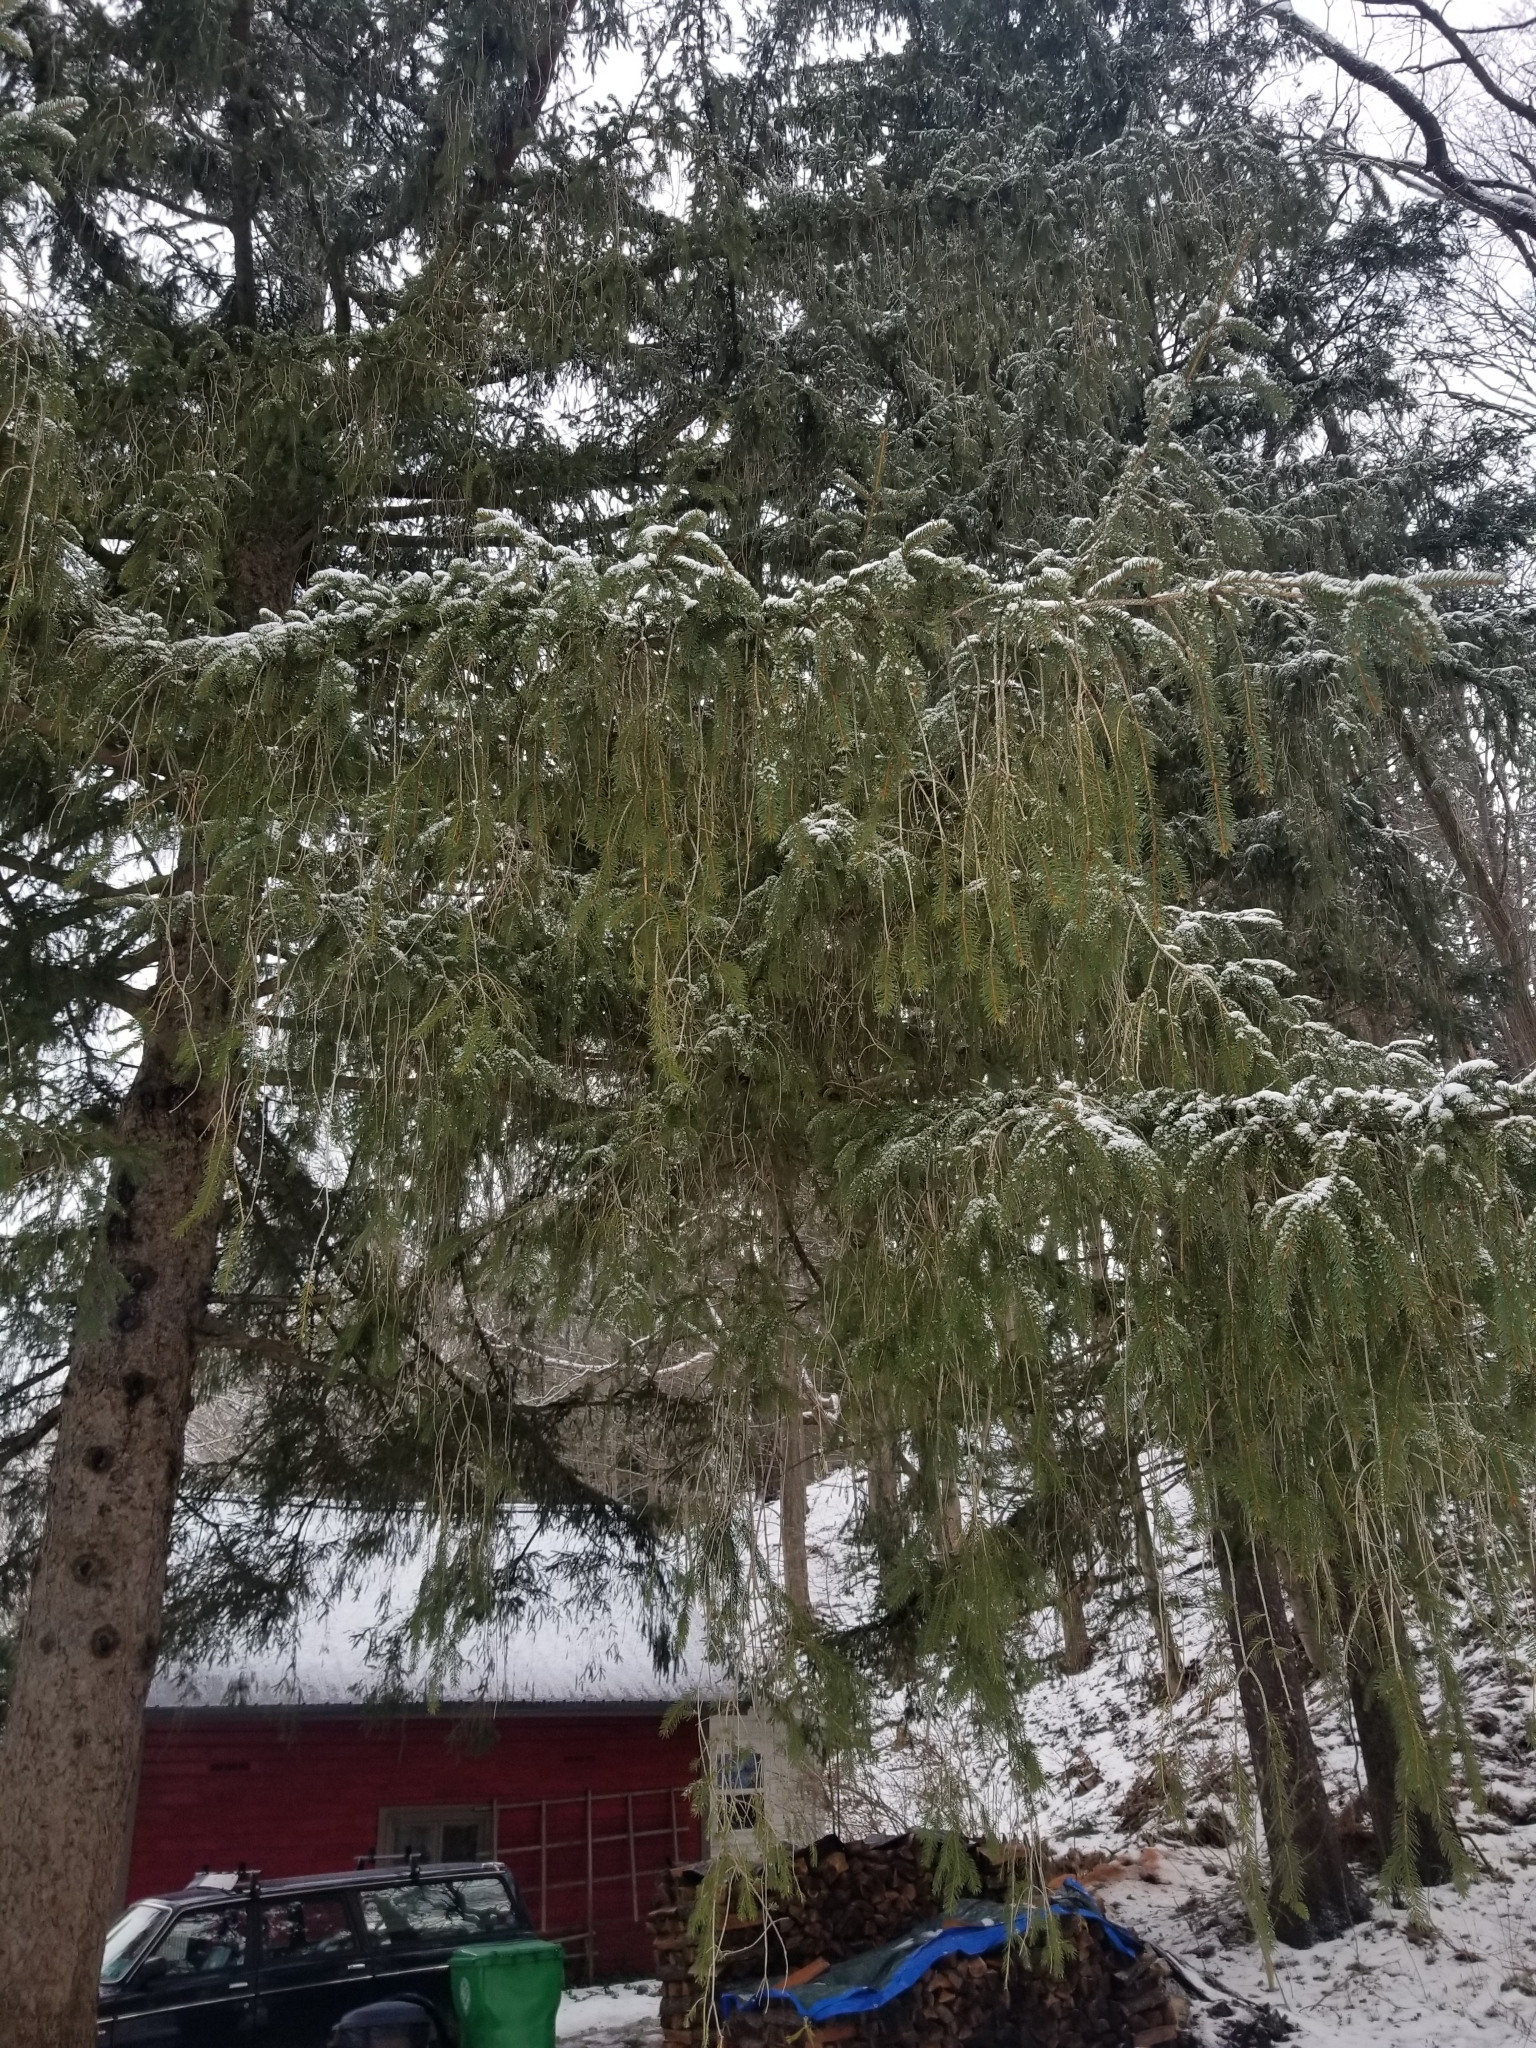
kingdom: Plantae
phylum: Tracheophyta
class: Pinopsida
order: Pinales
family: Pinaceae
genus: Picea
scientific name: Picea abies
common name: Norway spruce
